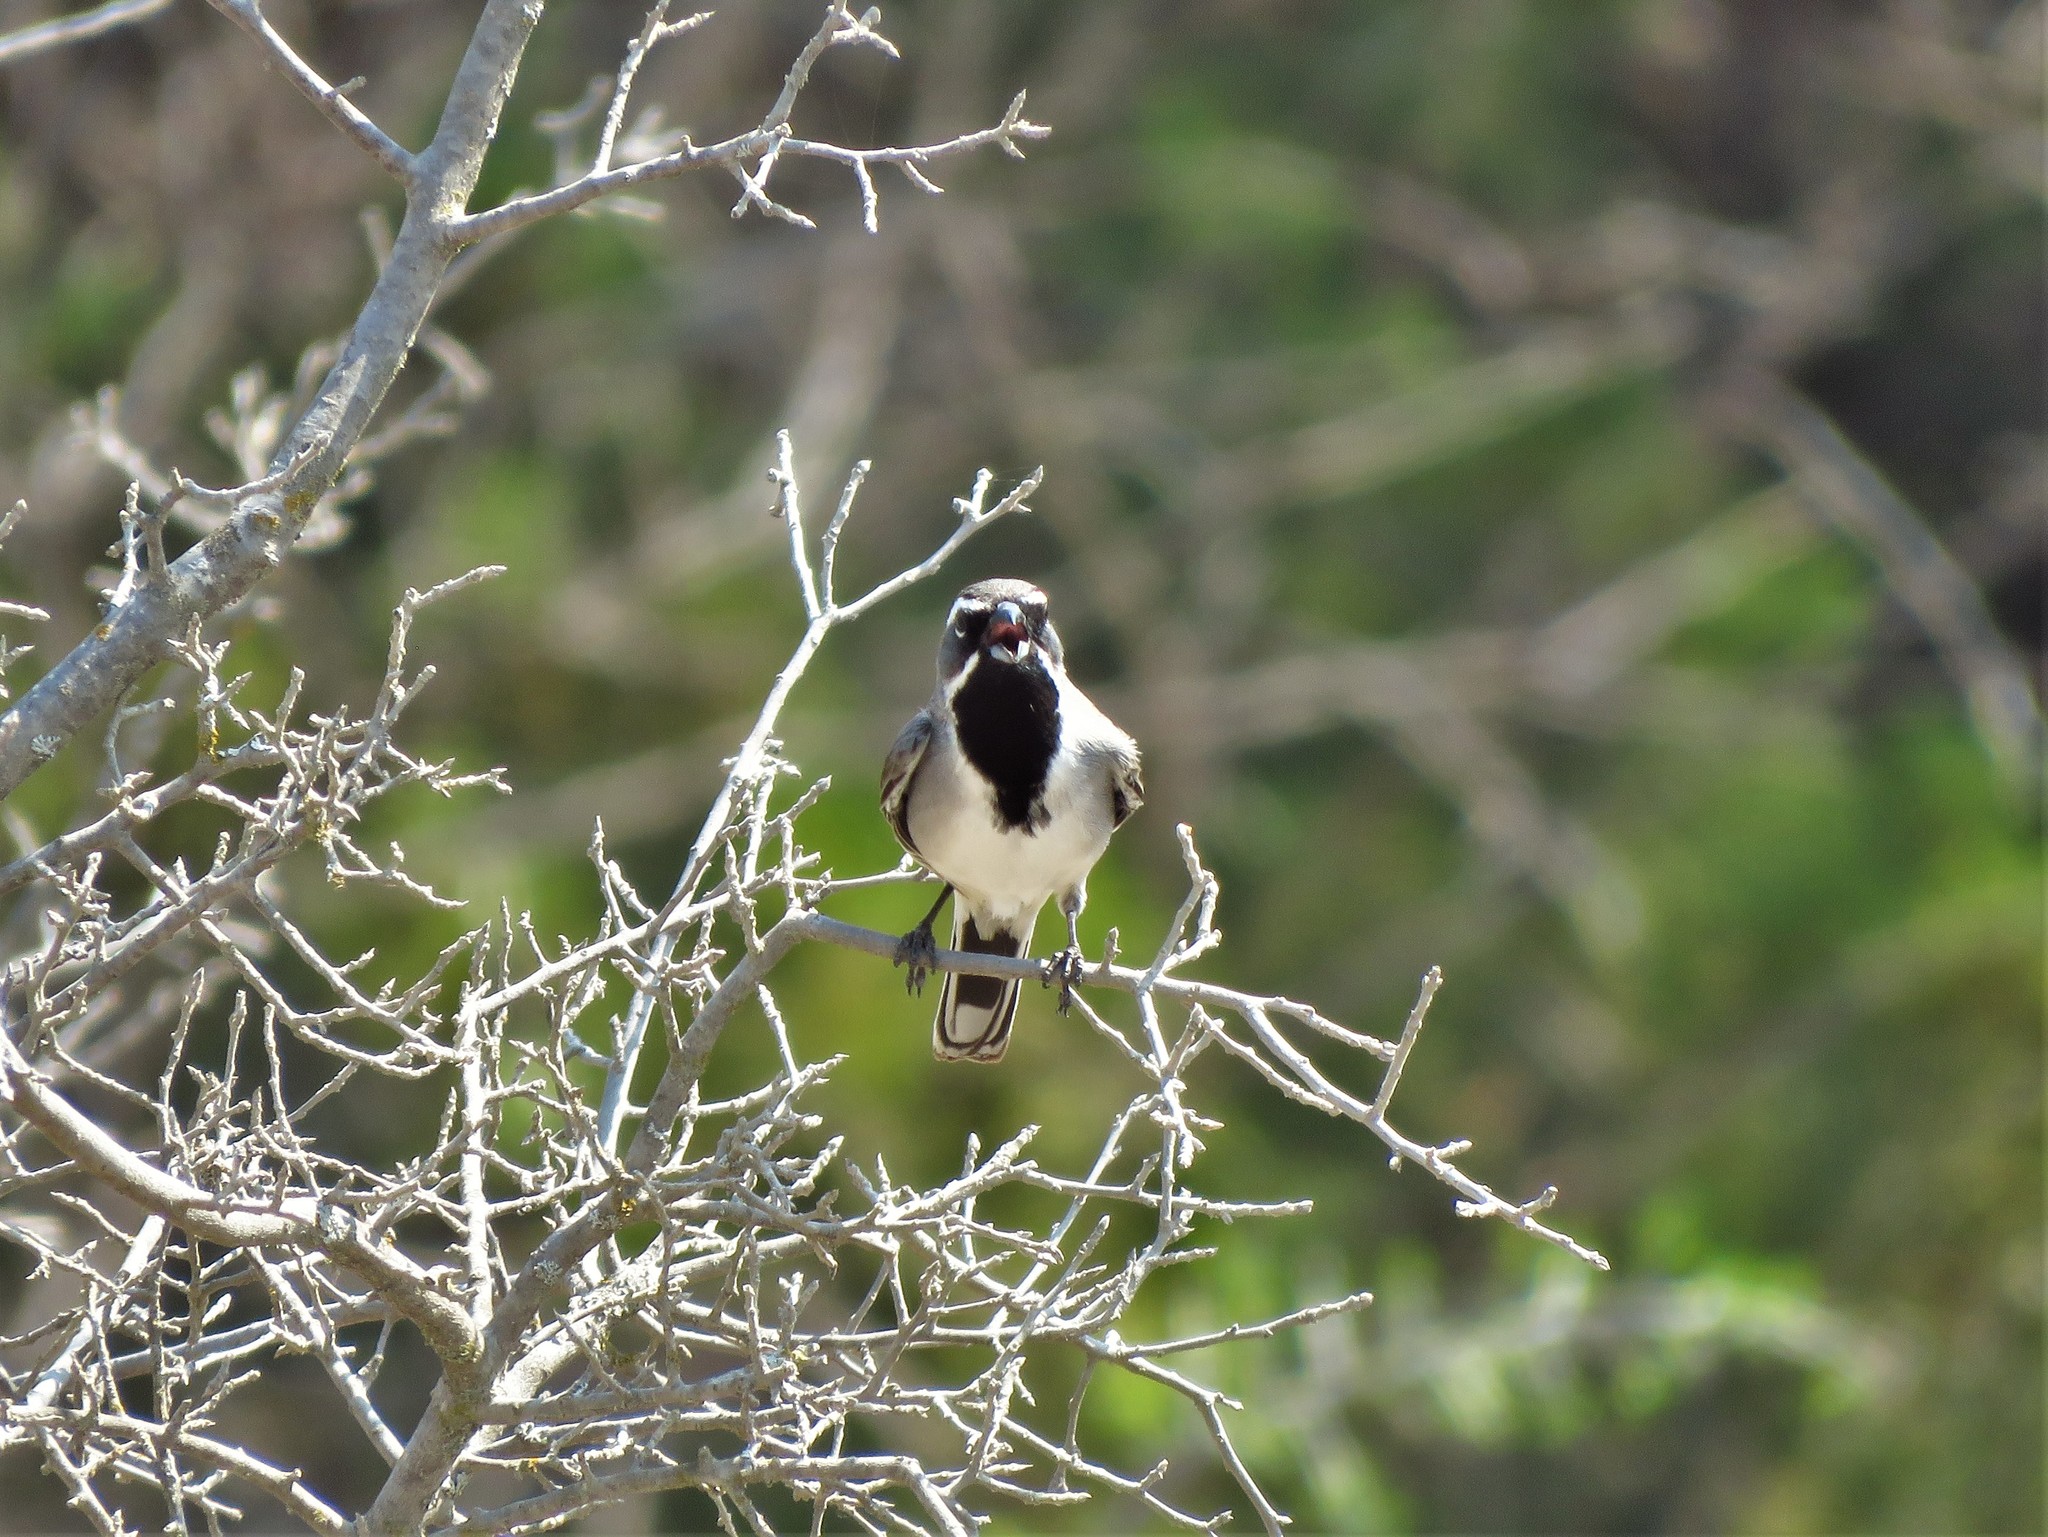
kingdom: Animalia
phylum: Chordata
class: Aves
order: Passeriformes
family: Passerellidae
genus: Amphispiza
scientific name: Amphispiza bilineata
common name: Black-throated sparrow
